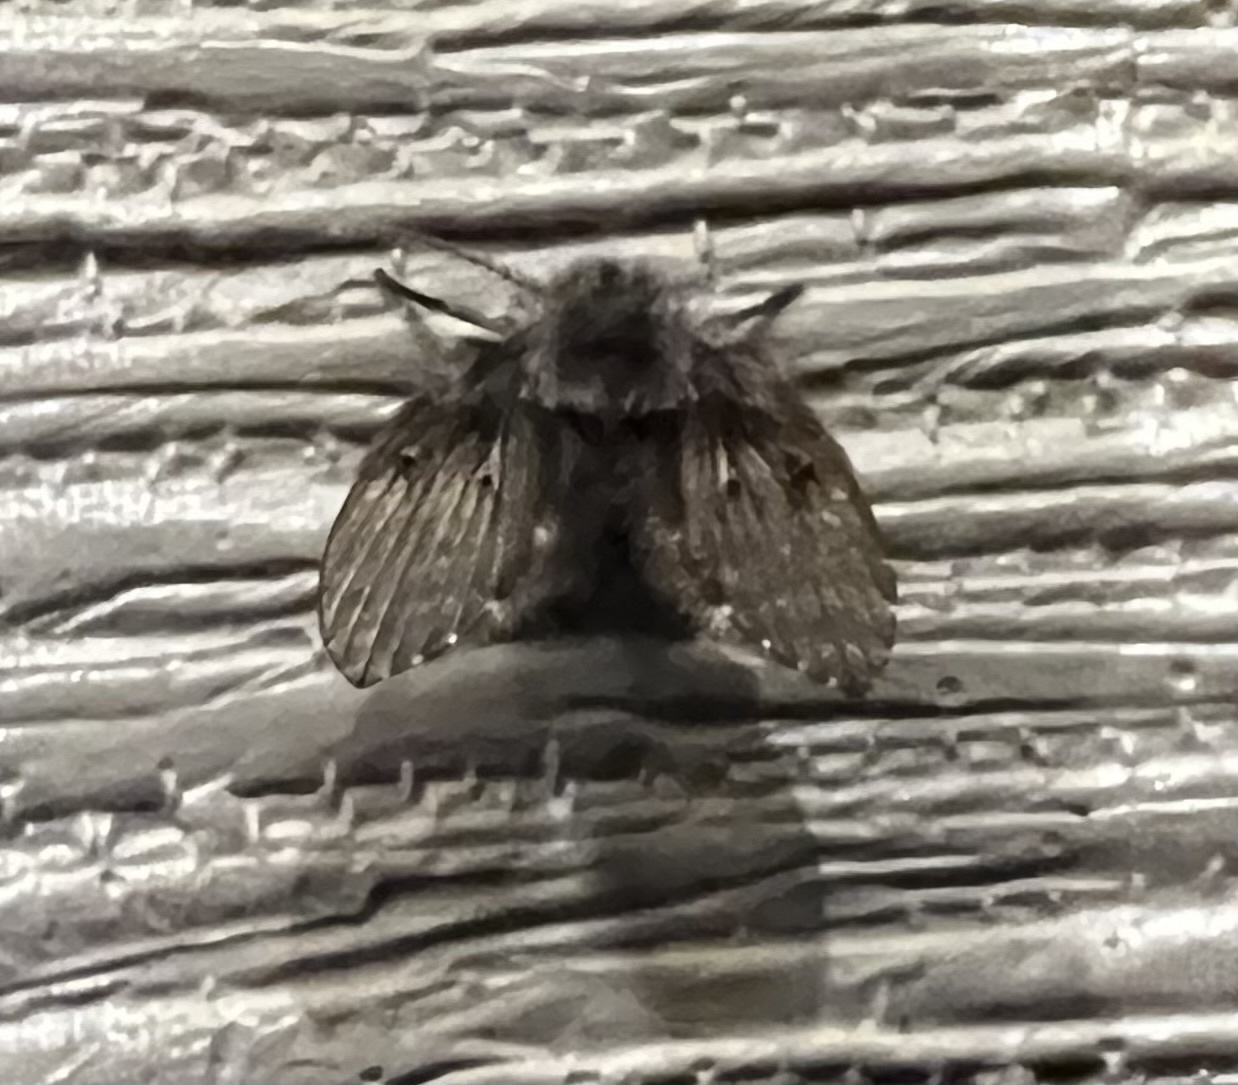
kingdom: Animalia
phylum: Arthropoda
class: Insecta
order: Diptera
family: Psychodidae
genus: Clogmia
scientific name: Clogmia albipunctatus
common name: White-spotted moth fly
